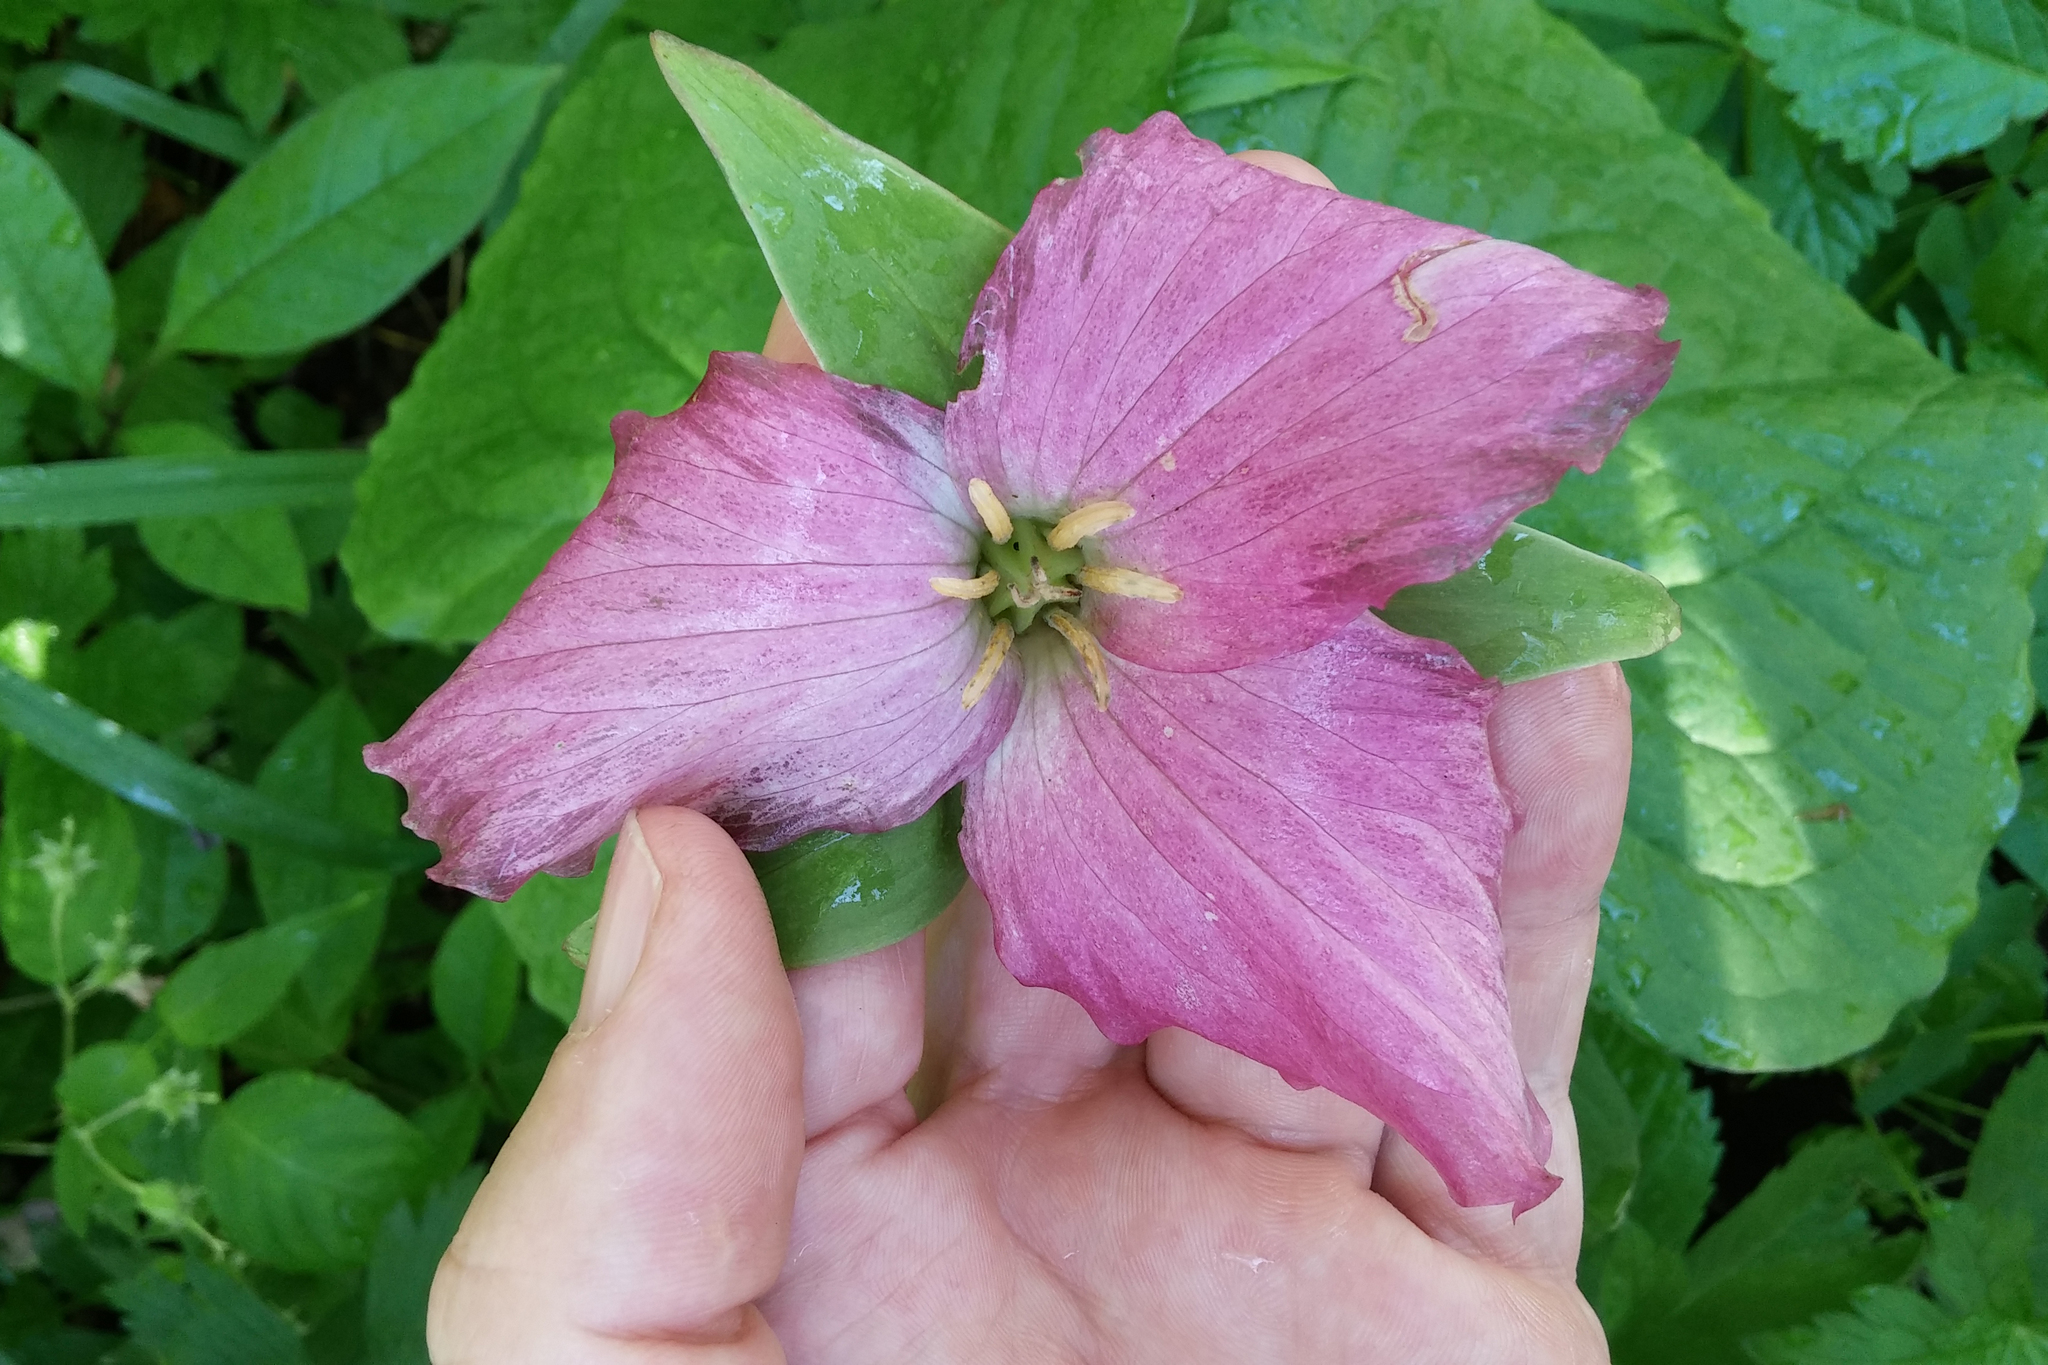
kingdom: Plantae
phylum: Tracheophyta
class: Liliopsida
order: Liliales
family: Melanthiaceae
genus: Trillium
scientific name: Trillium grandiflorum
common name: Great white trillium
